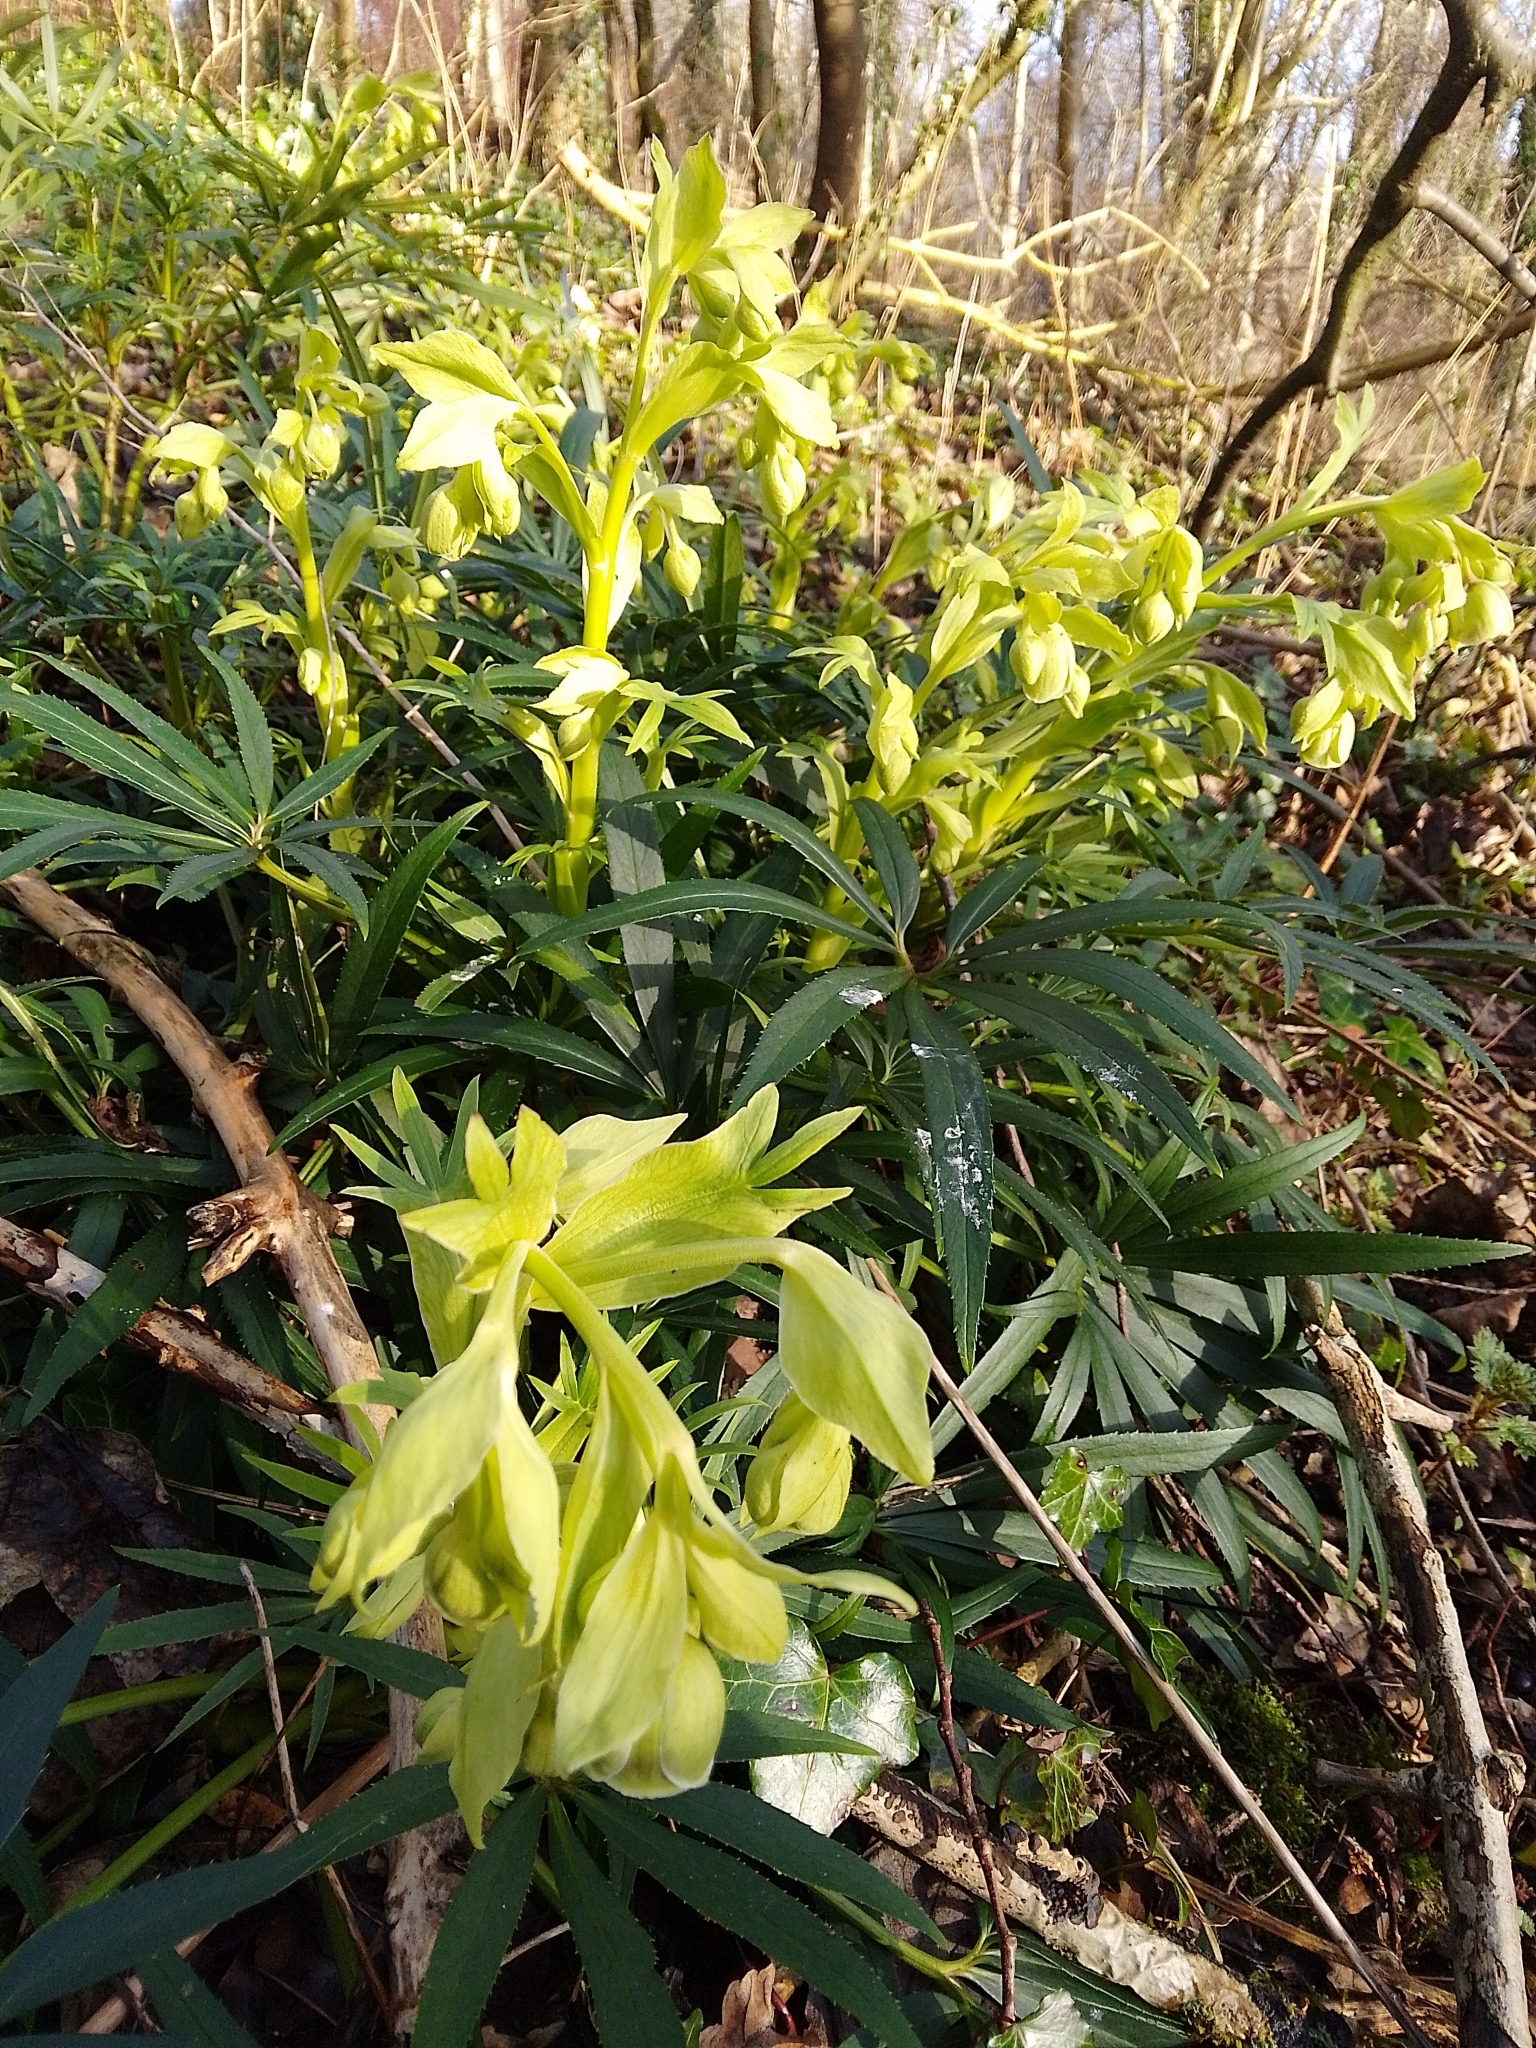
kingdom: Plantae
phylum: Tracheophyta
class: Magnoliopsida
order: Ranunculales
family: Ranunculaceae
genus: Helleborus
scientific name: Helleborus foetidus
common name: Stinking hellebore
